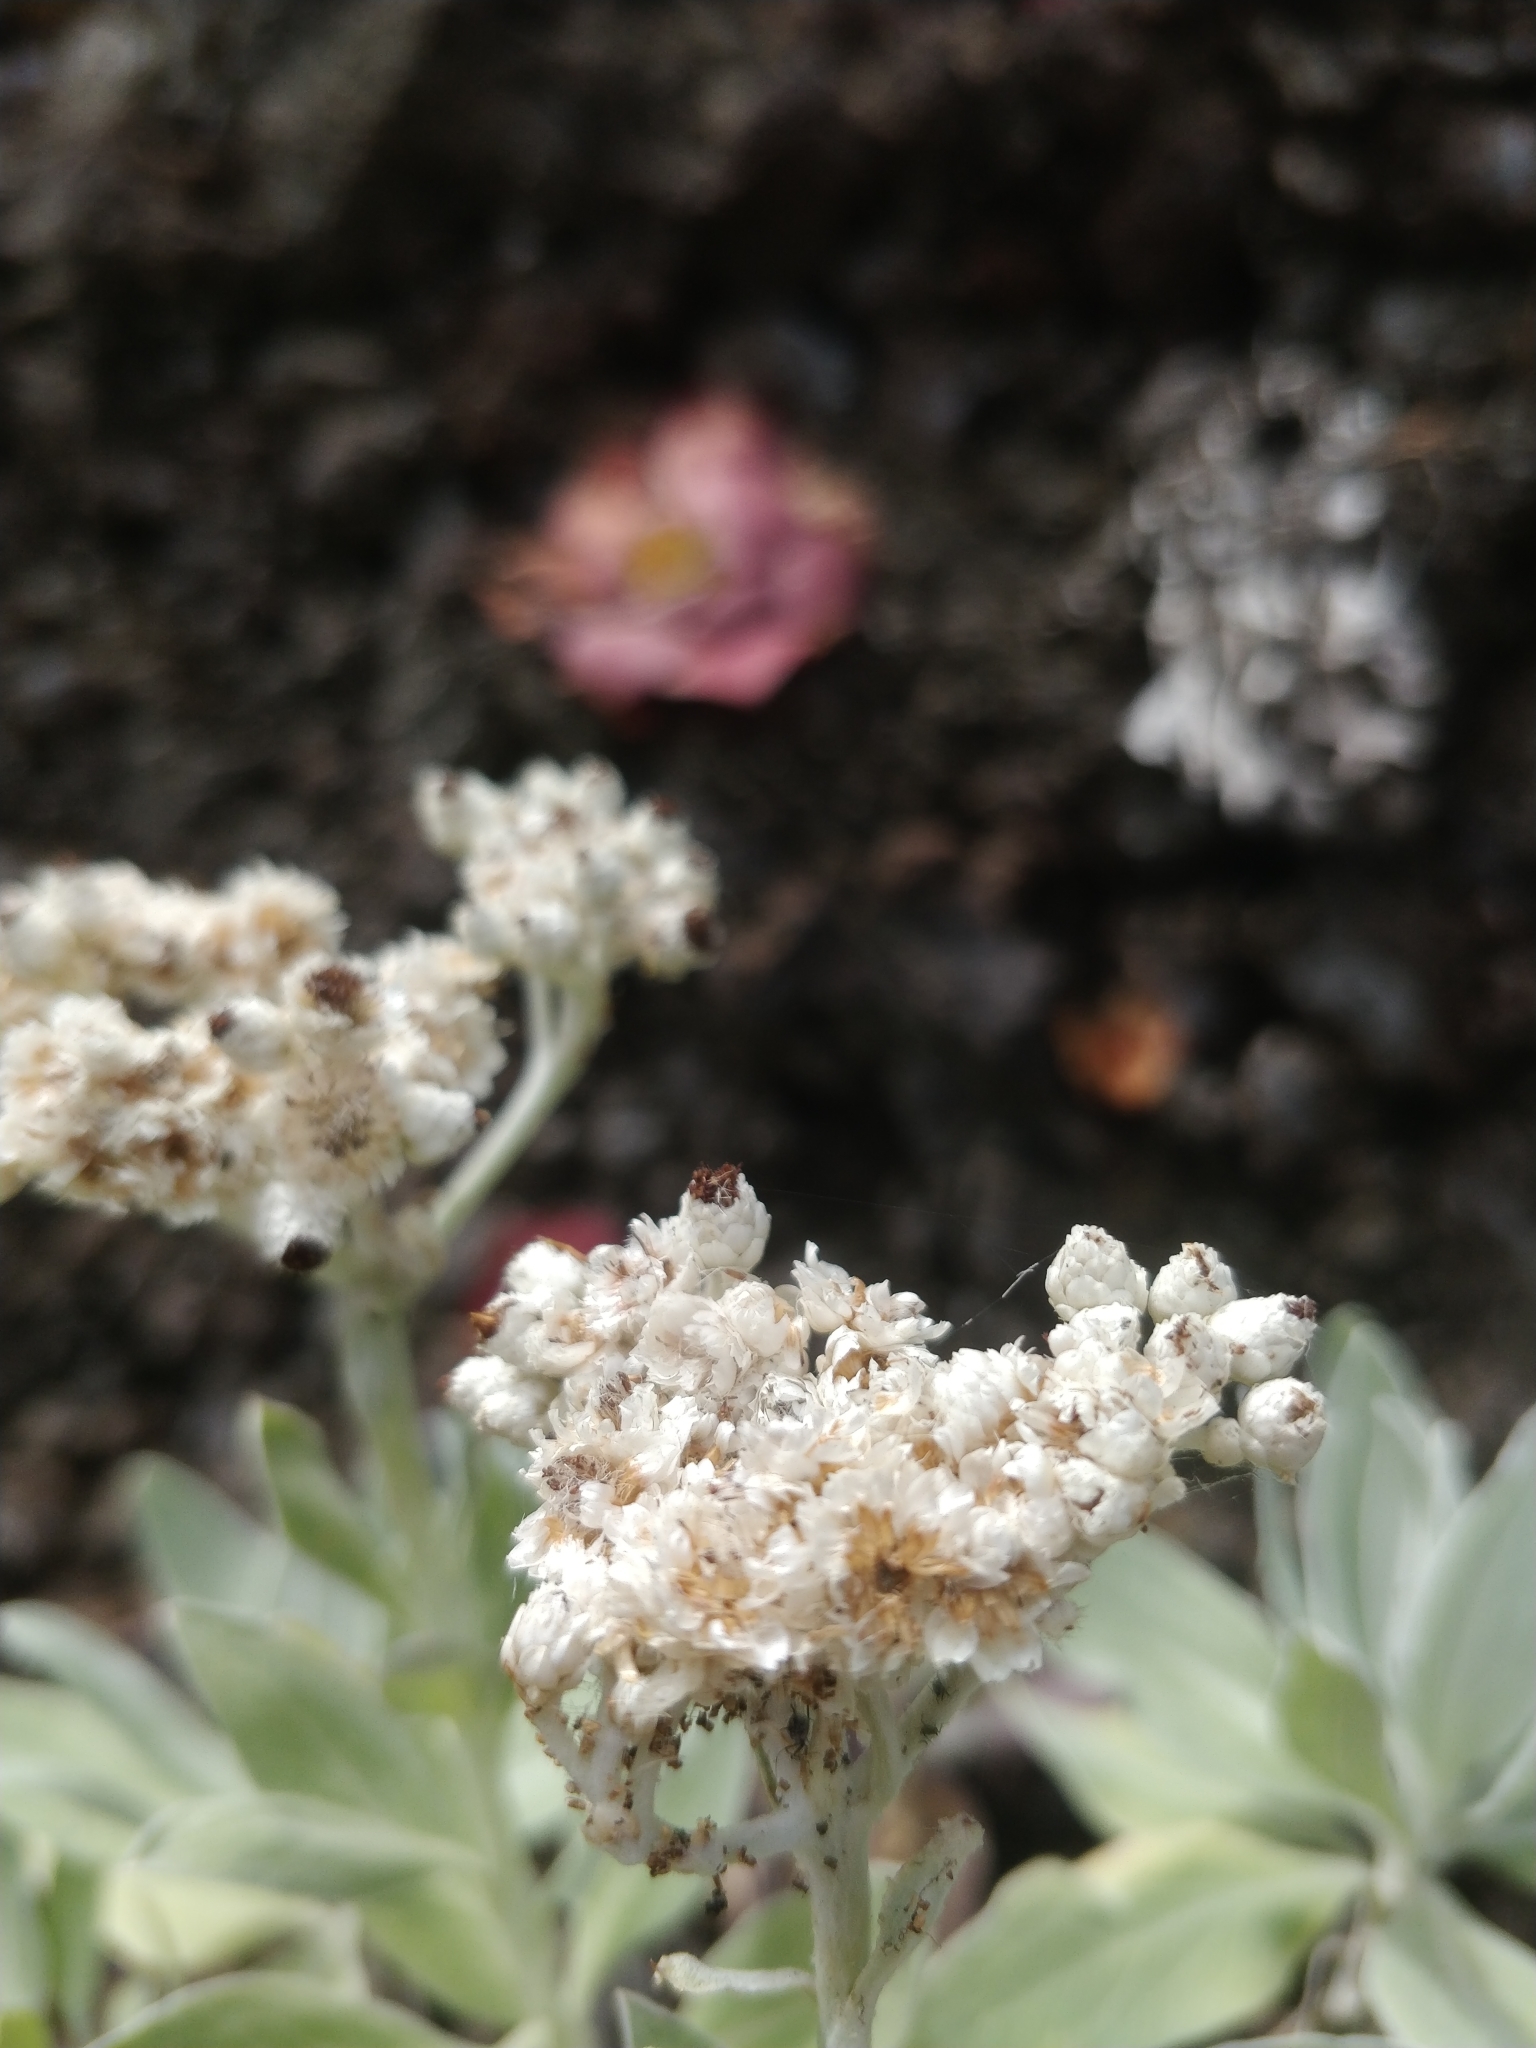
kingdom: Plantae
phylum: Tracheophyta
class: Magnoliopsida
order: Asterales
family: Asteraceae
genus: Helichrysum
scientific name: Helichrysum melaleucum
